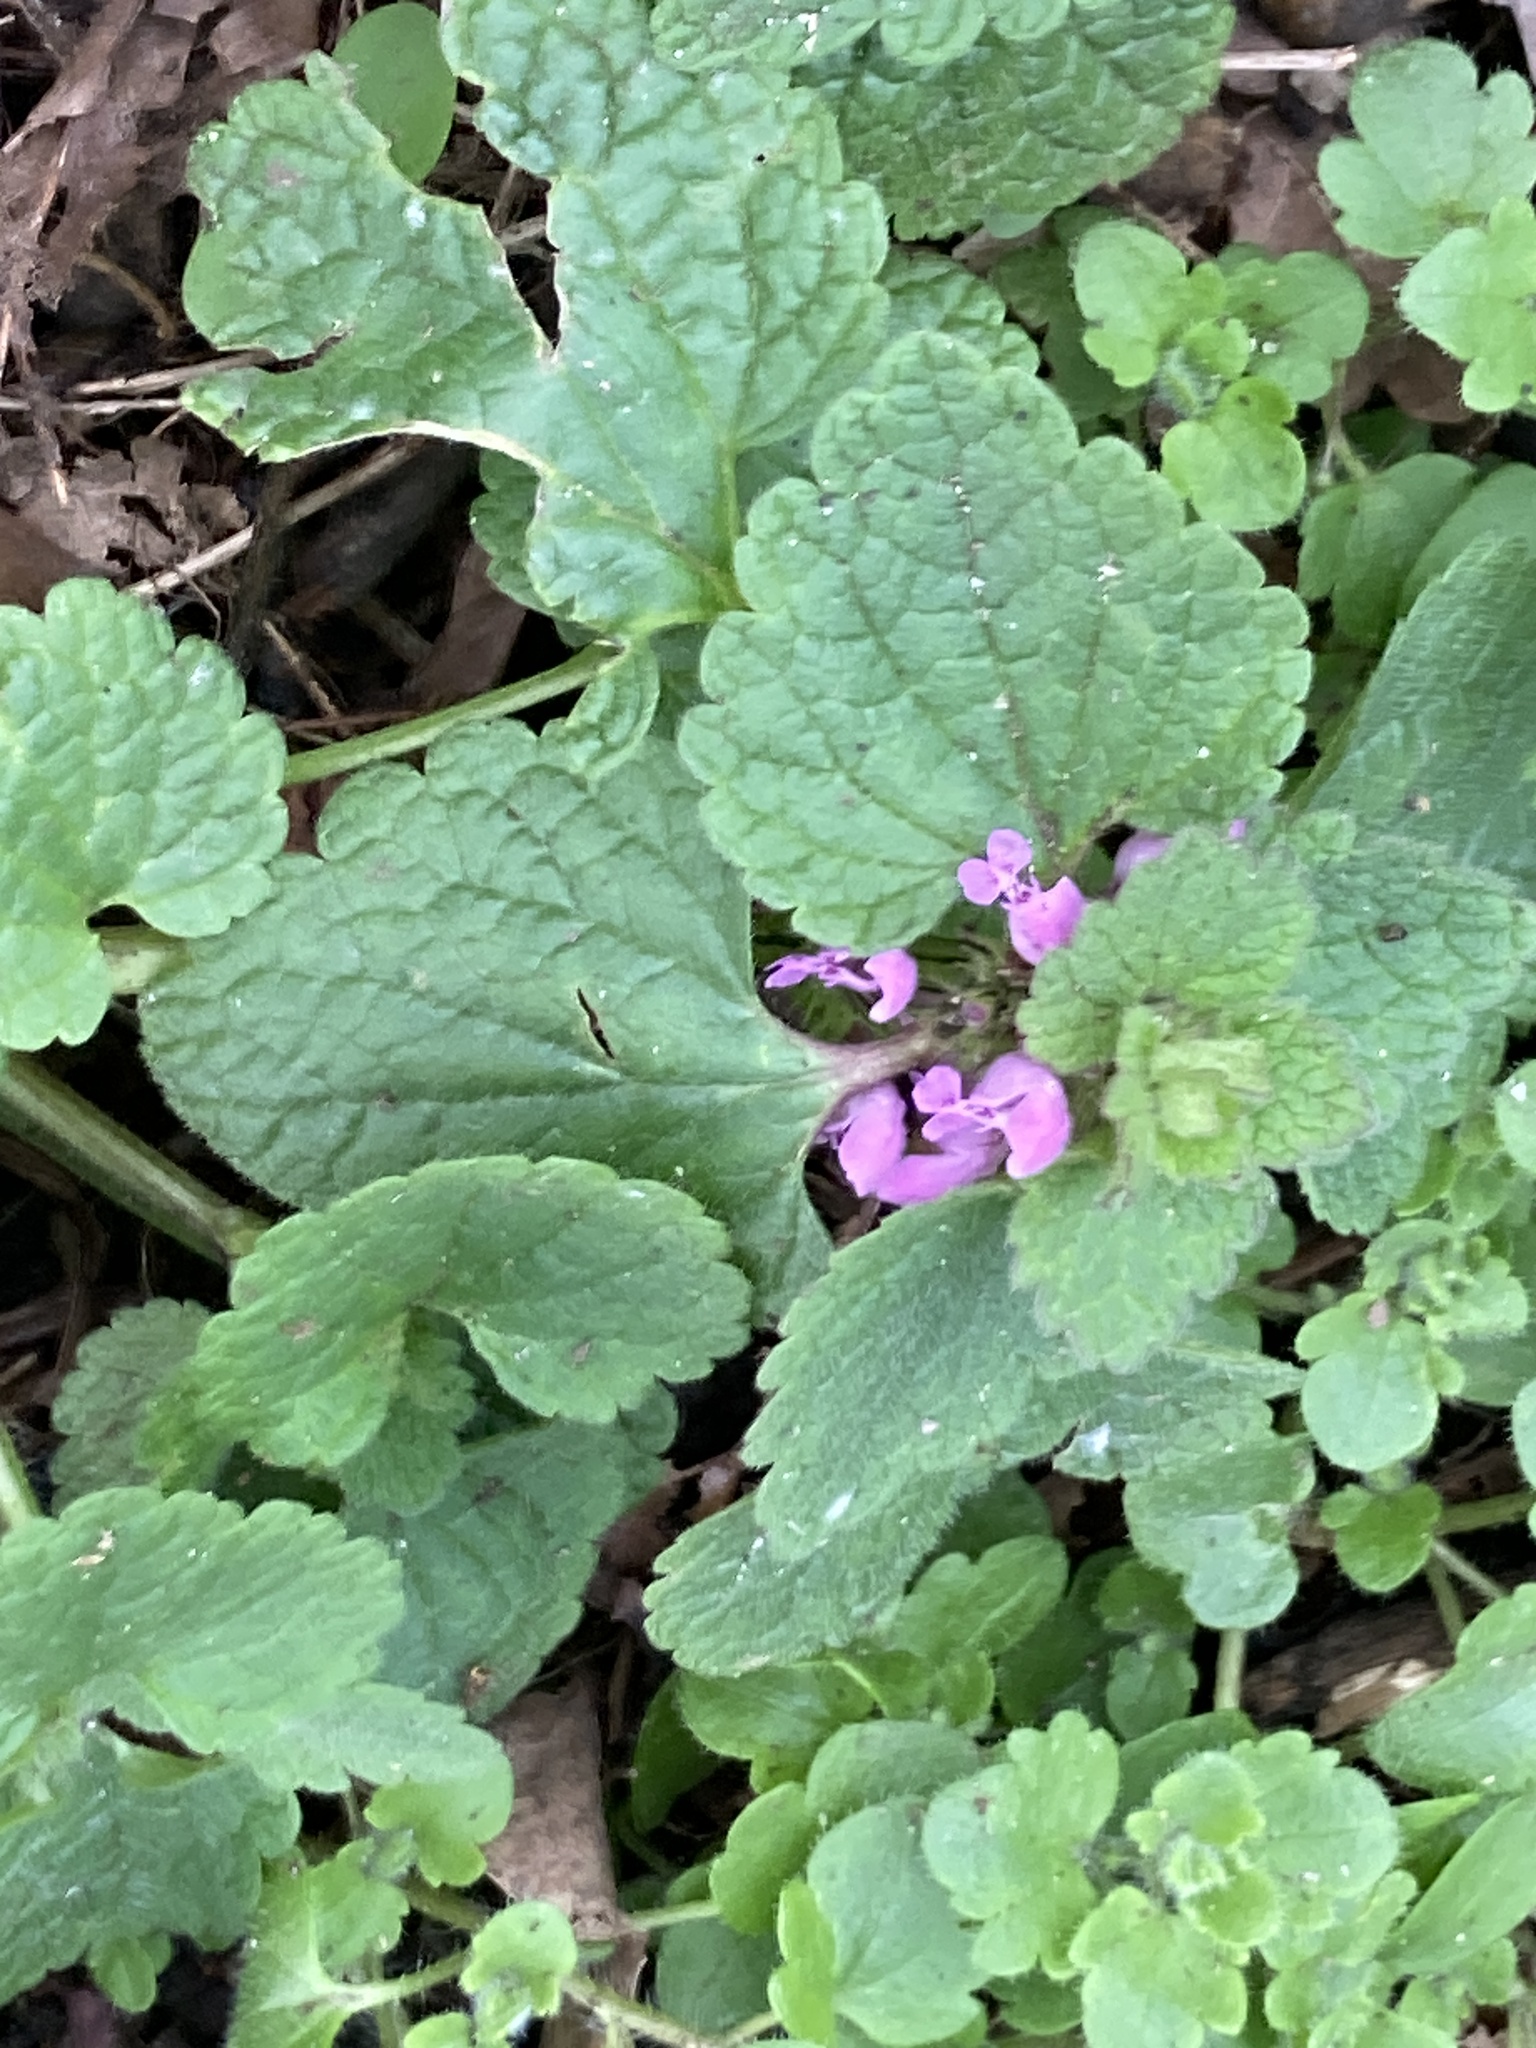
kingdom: Plantae
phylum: Tracheophyta
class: Magnoliopsida
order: Lamiales
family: Lamiaceae
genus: Lamium
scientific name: Lamium purpureum
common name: Red dead-nettle
